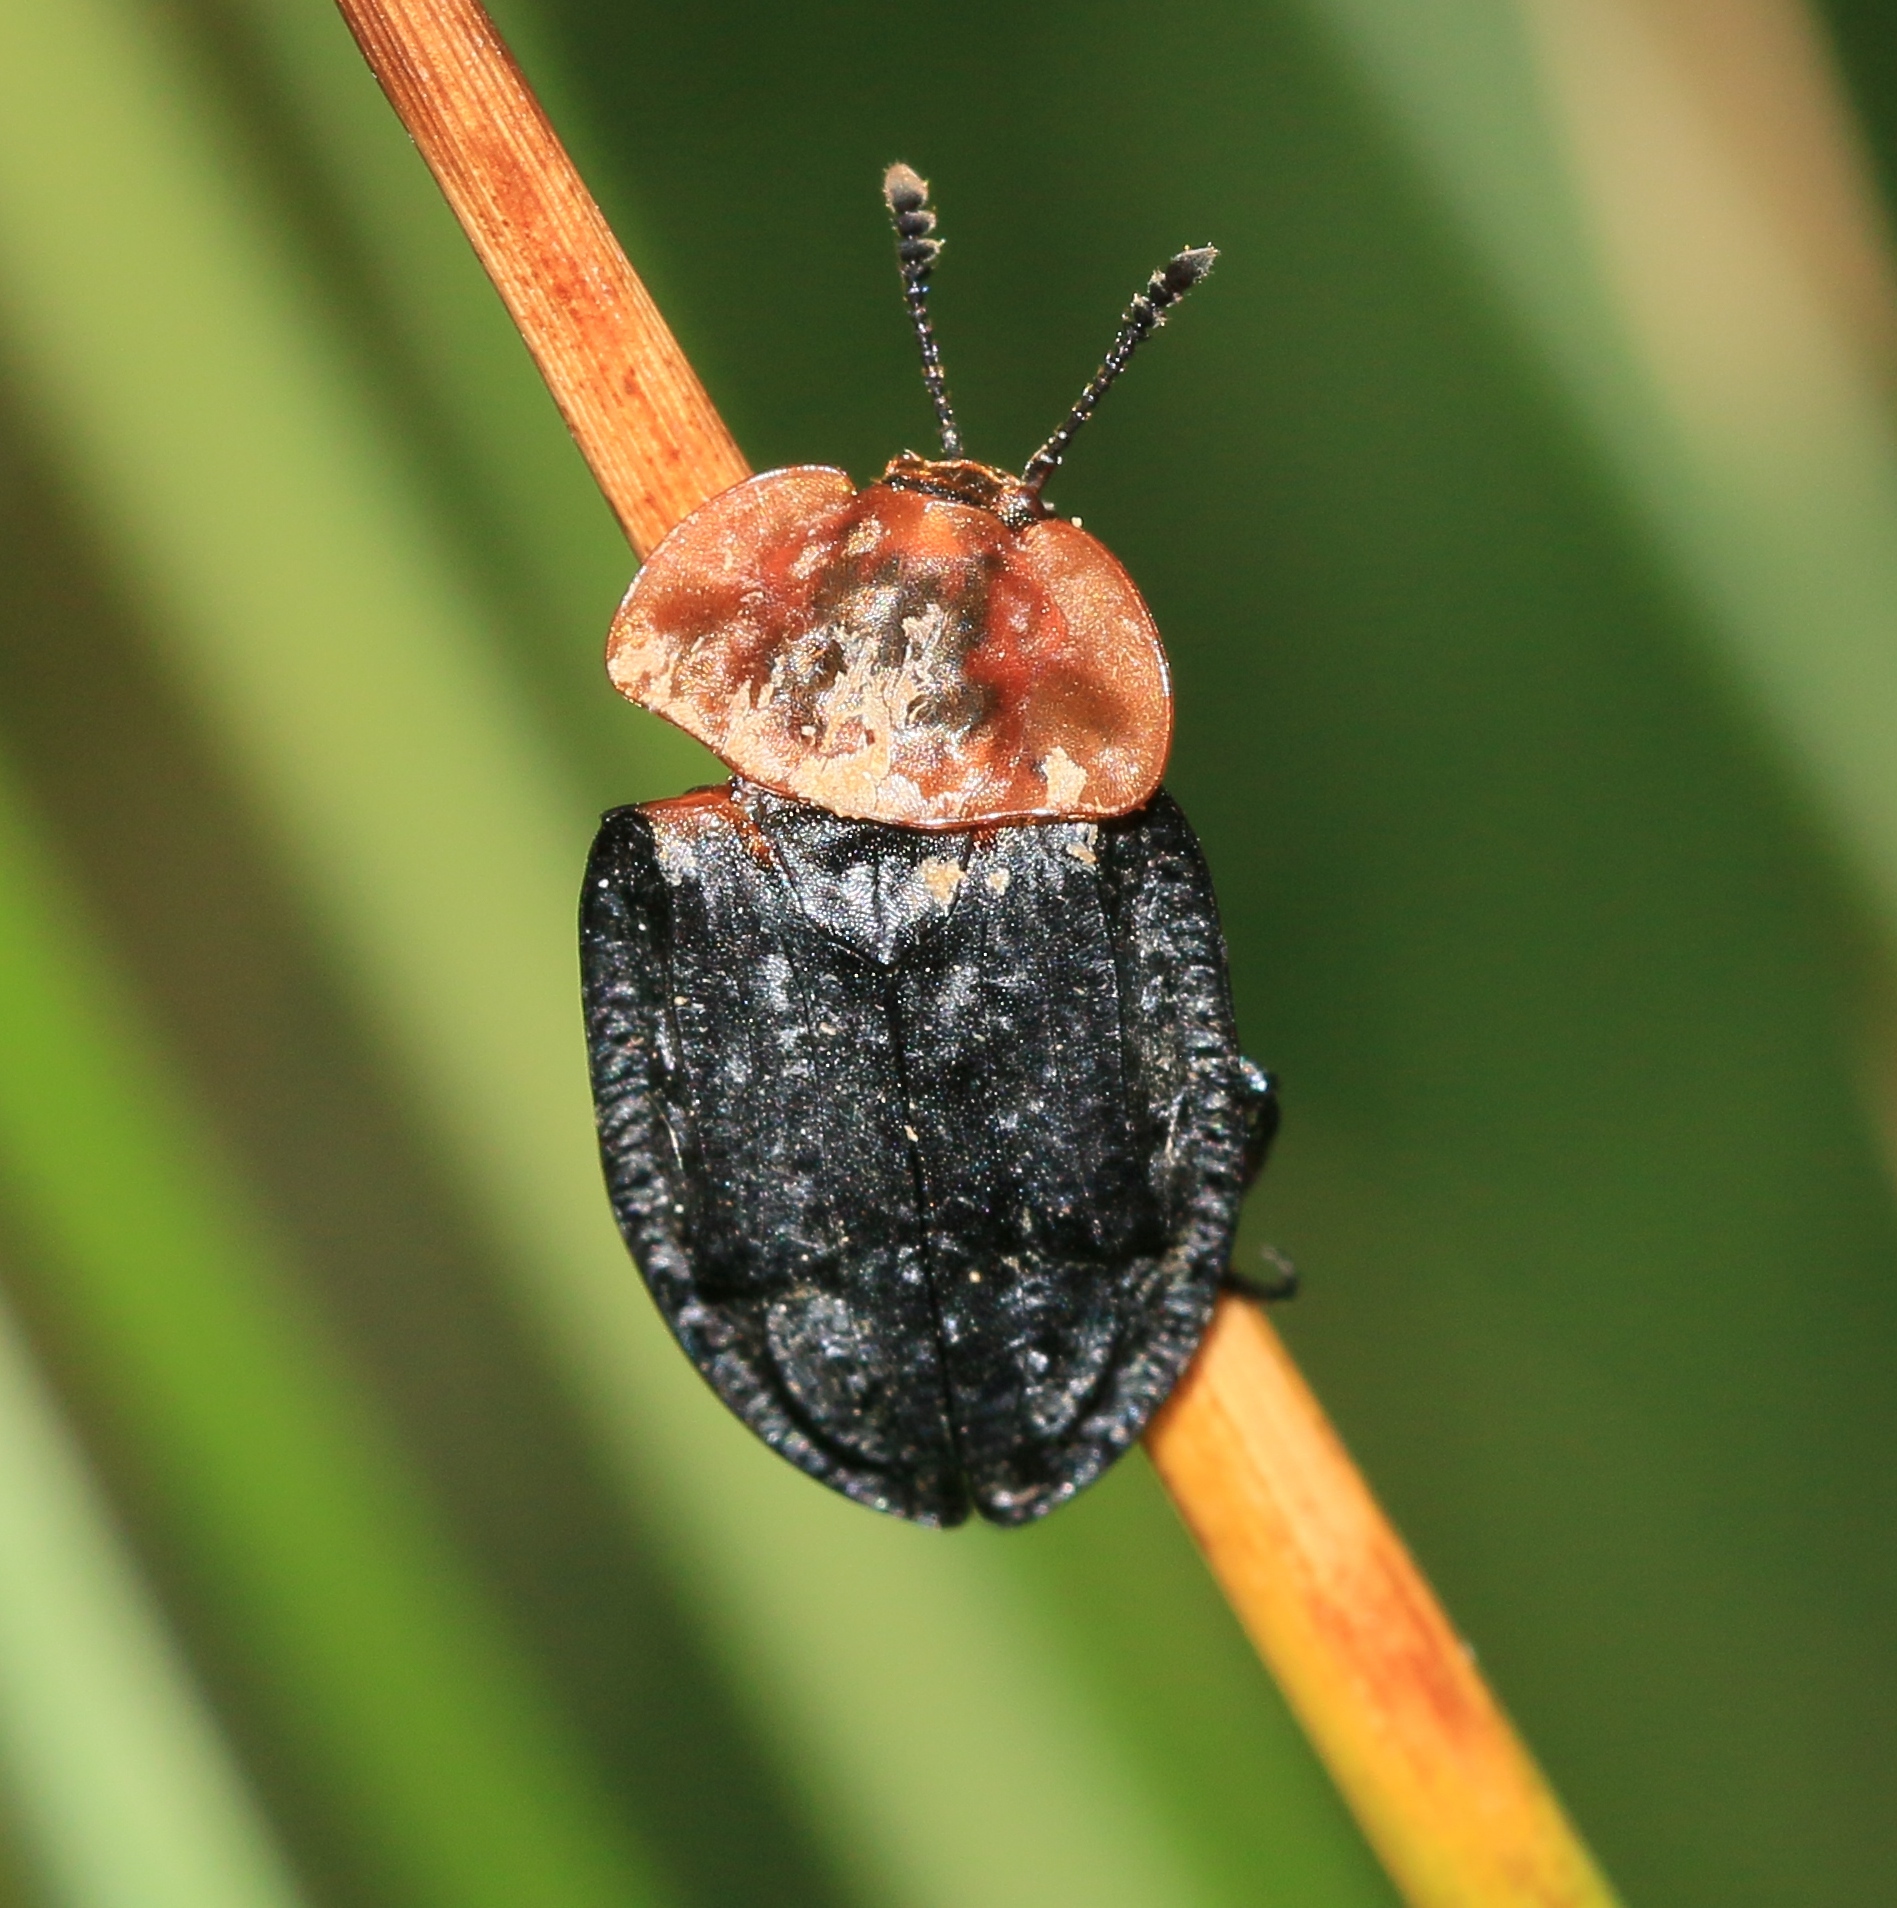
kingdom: Animalia
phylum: Arthropoda
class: Insecta
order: Coleoptera
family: Staphylinidae
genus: Oiceoptoma
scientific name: Oiceoptoma thoracicum
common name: Red-breasted carrion beetle
